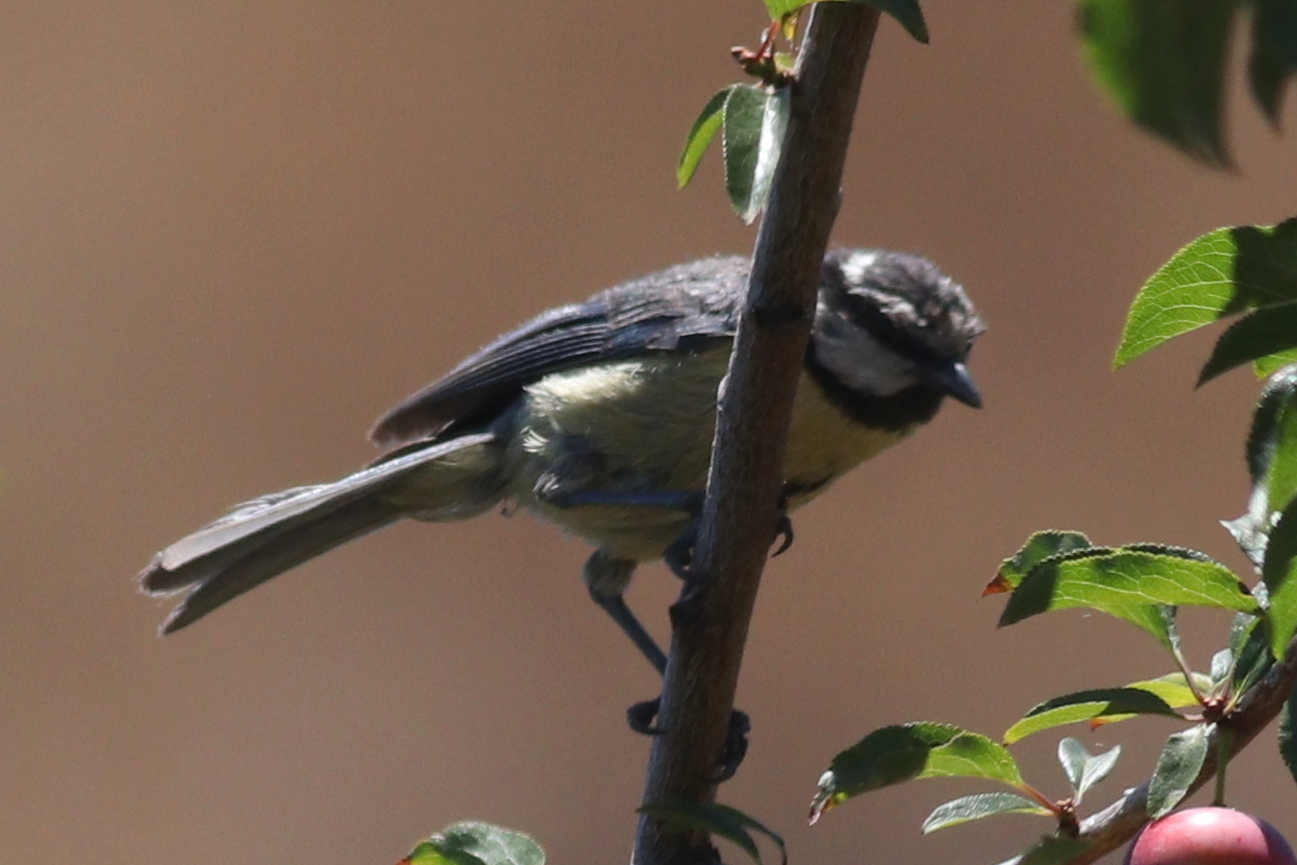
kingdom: Animalia
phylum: Chordata
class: Aves
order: Passeriformes
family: Paridae
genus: Cyanistes
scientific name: Cyanistes teneriffae
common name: African blue tit
